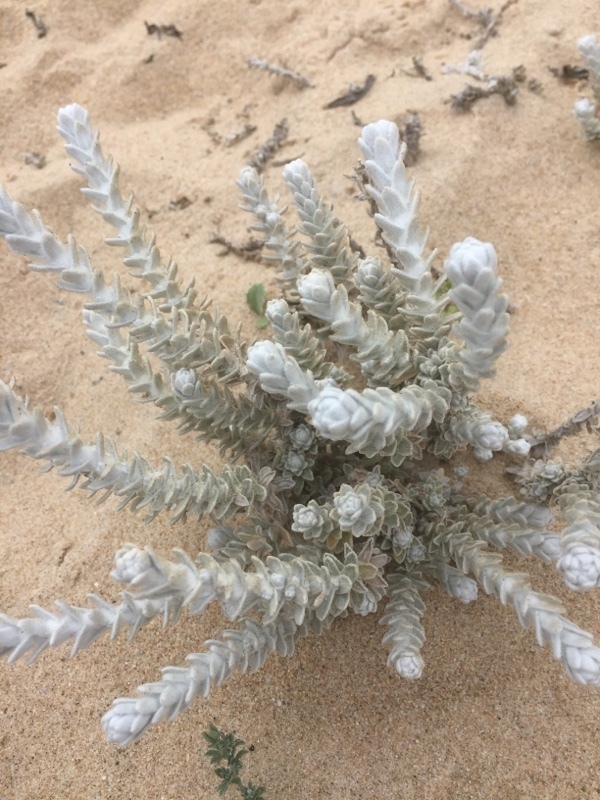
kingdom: Plantae
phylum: Tracheophyta
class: Magnoliopsida
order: Asterales
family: Asteraceae
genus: Achillea
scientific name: Achillea maritima
